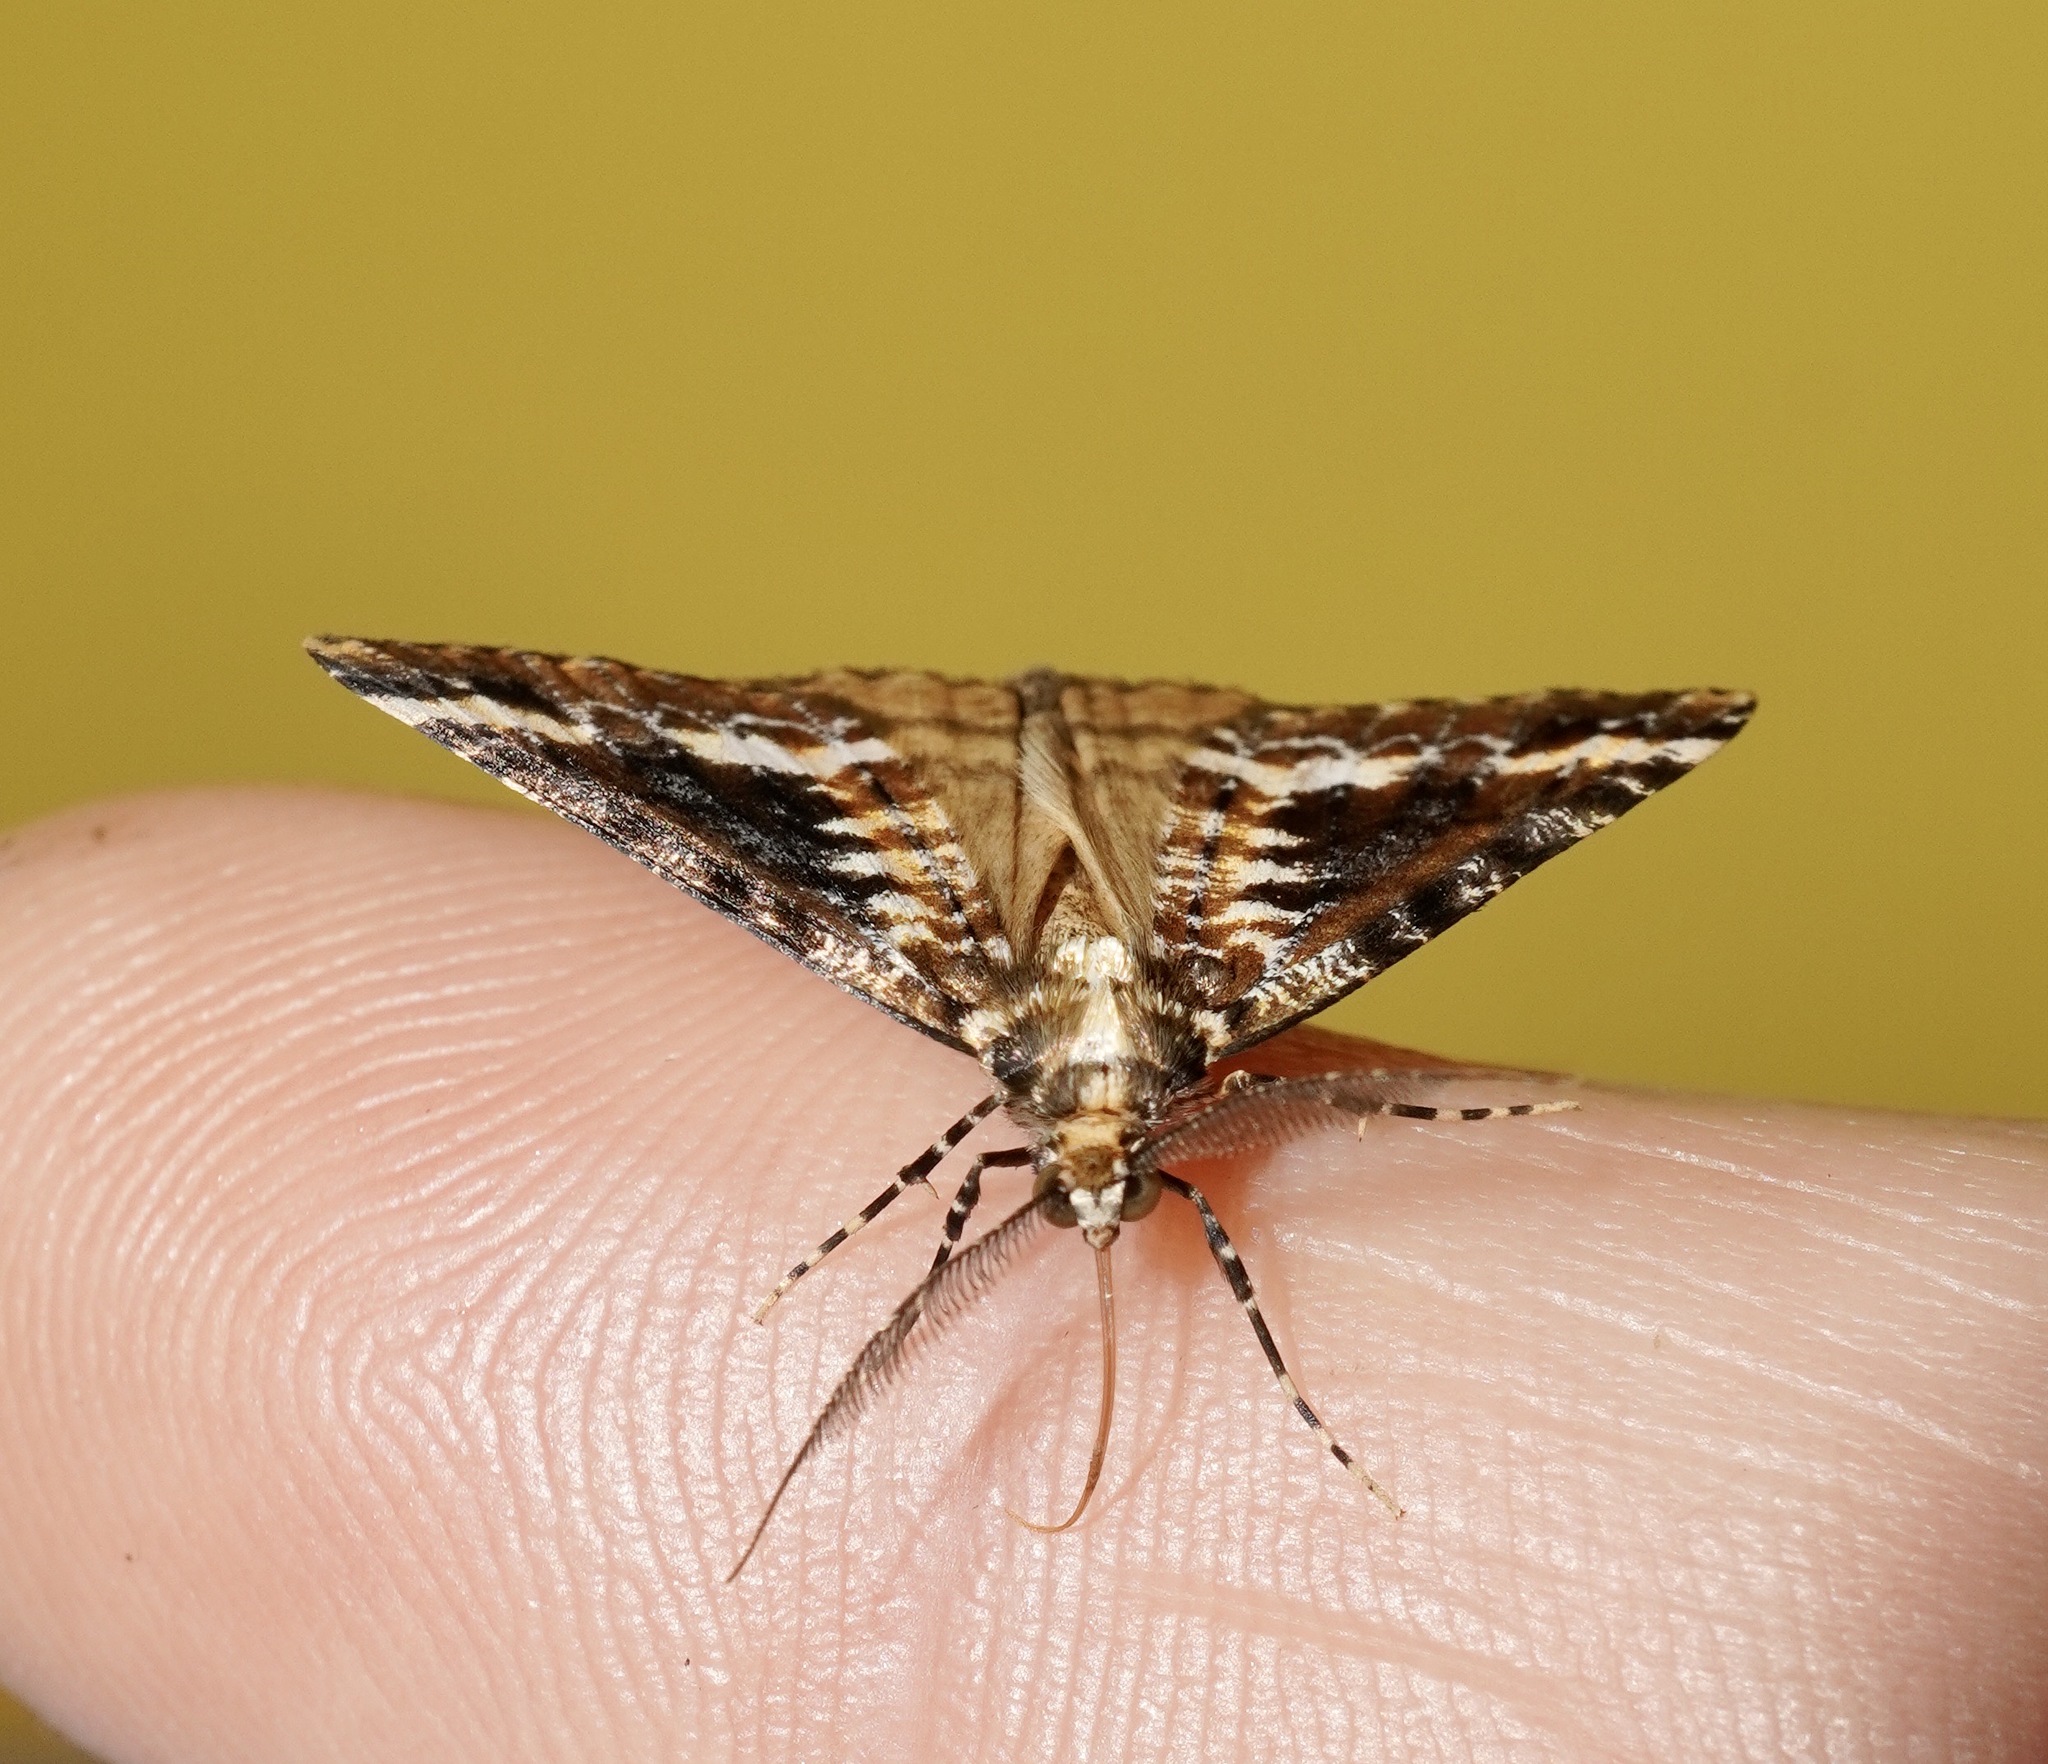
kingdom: Animalia
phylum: Arthropoda
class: Insecta
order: Lepidoptera
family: Geometridae
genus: Pseudocoremia
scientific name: Pseudocoremia leucelaea
